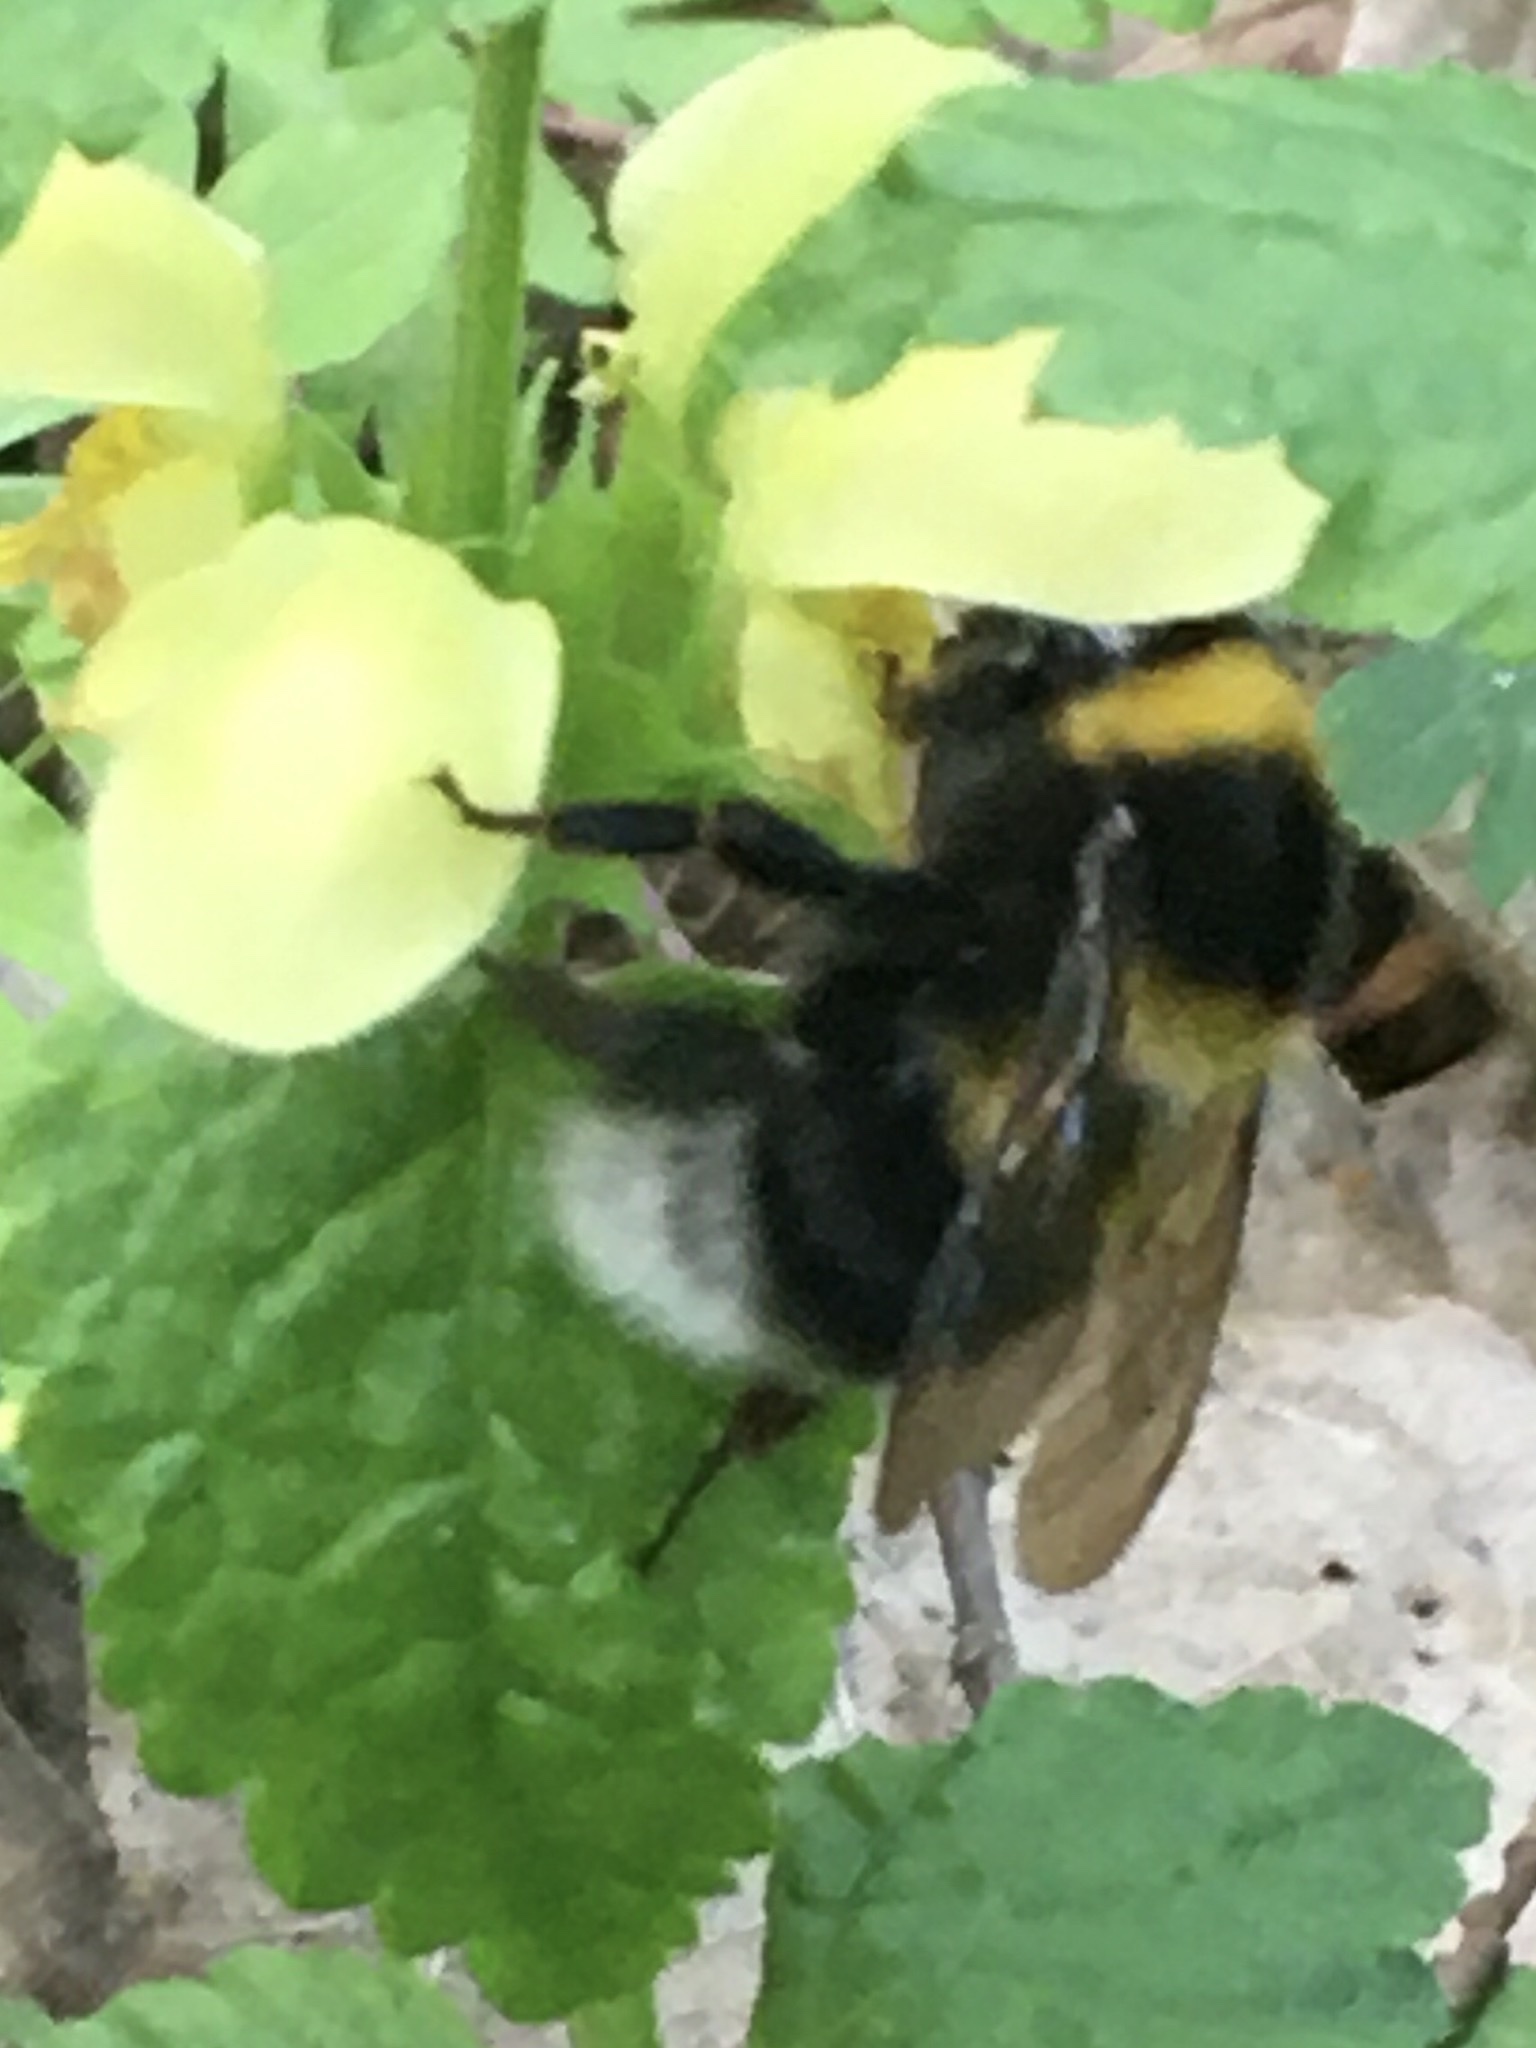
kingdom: Animalia
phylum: Arthropoda
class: Insecta
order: Hymenoptera
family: Apidae
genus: Bombus
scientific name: Bombus
